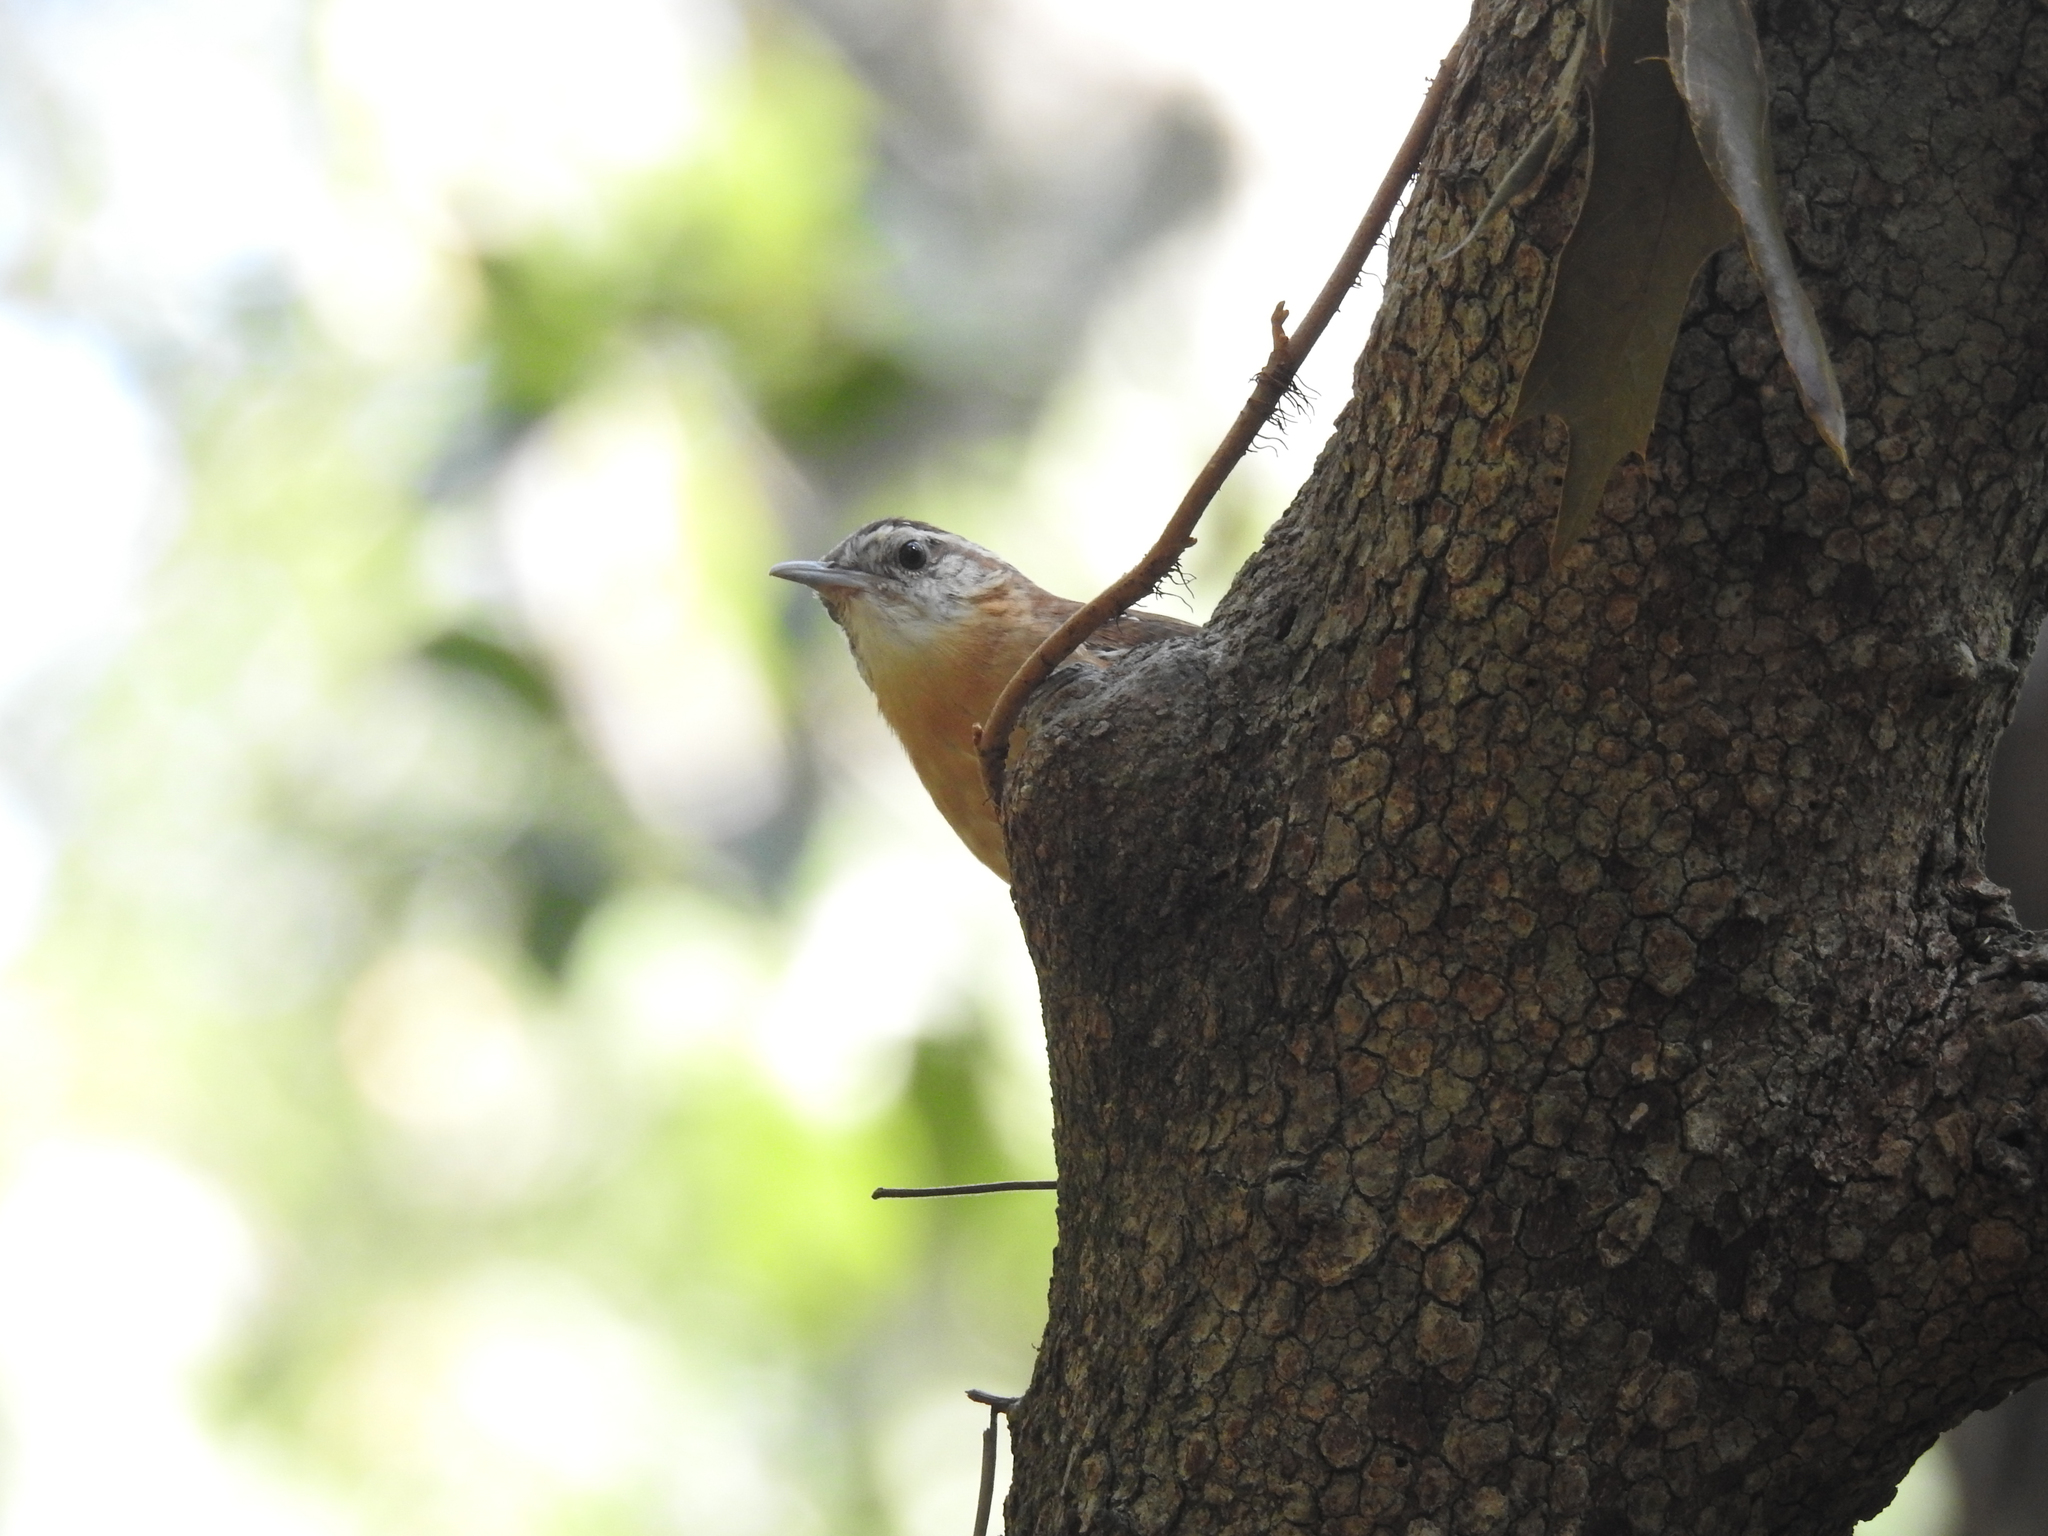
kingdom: Animalia
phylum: Chordata
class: Aves
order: Passeriformes
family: Troglodytidae
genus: Thryothorus
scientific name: Thryothorus ludovicianus
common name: Carolina wren
